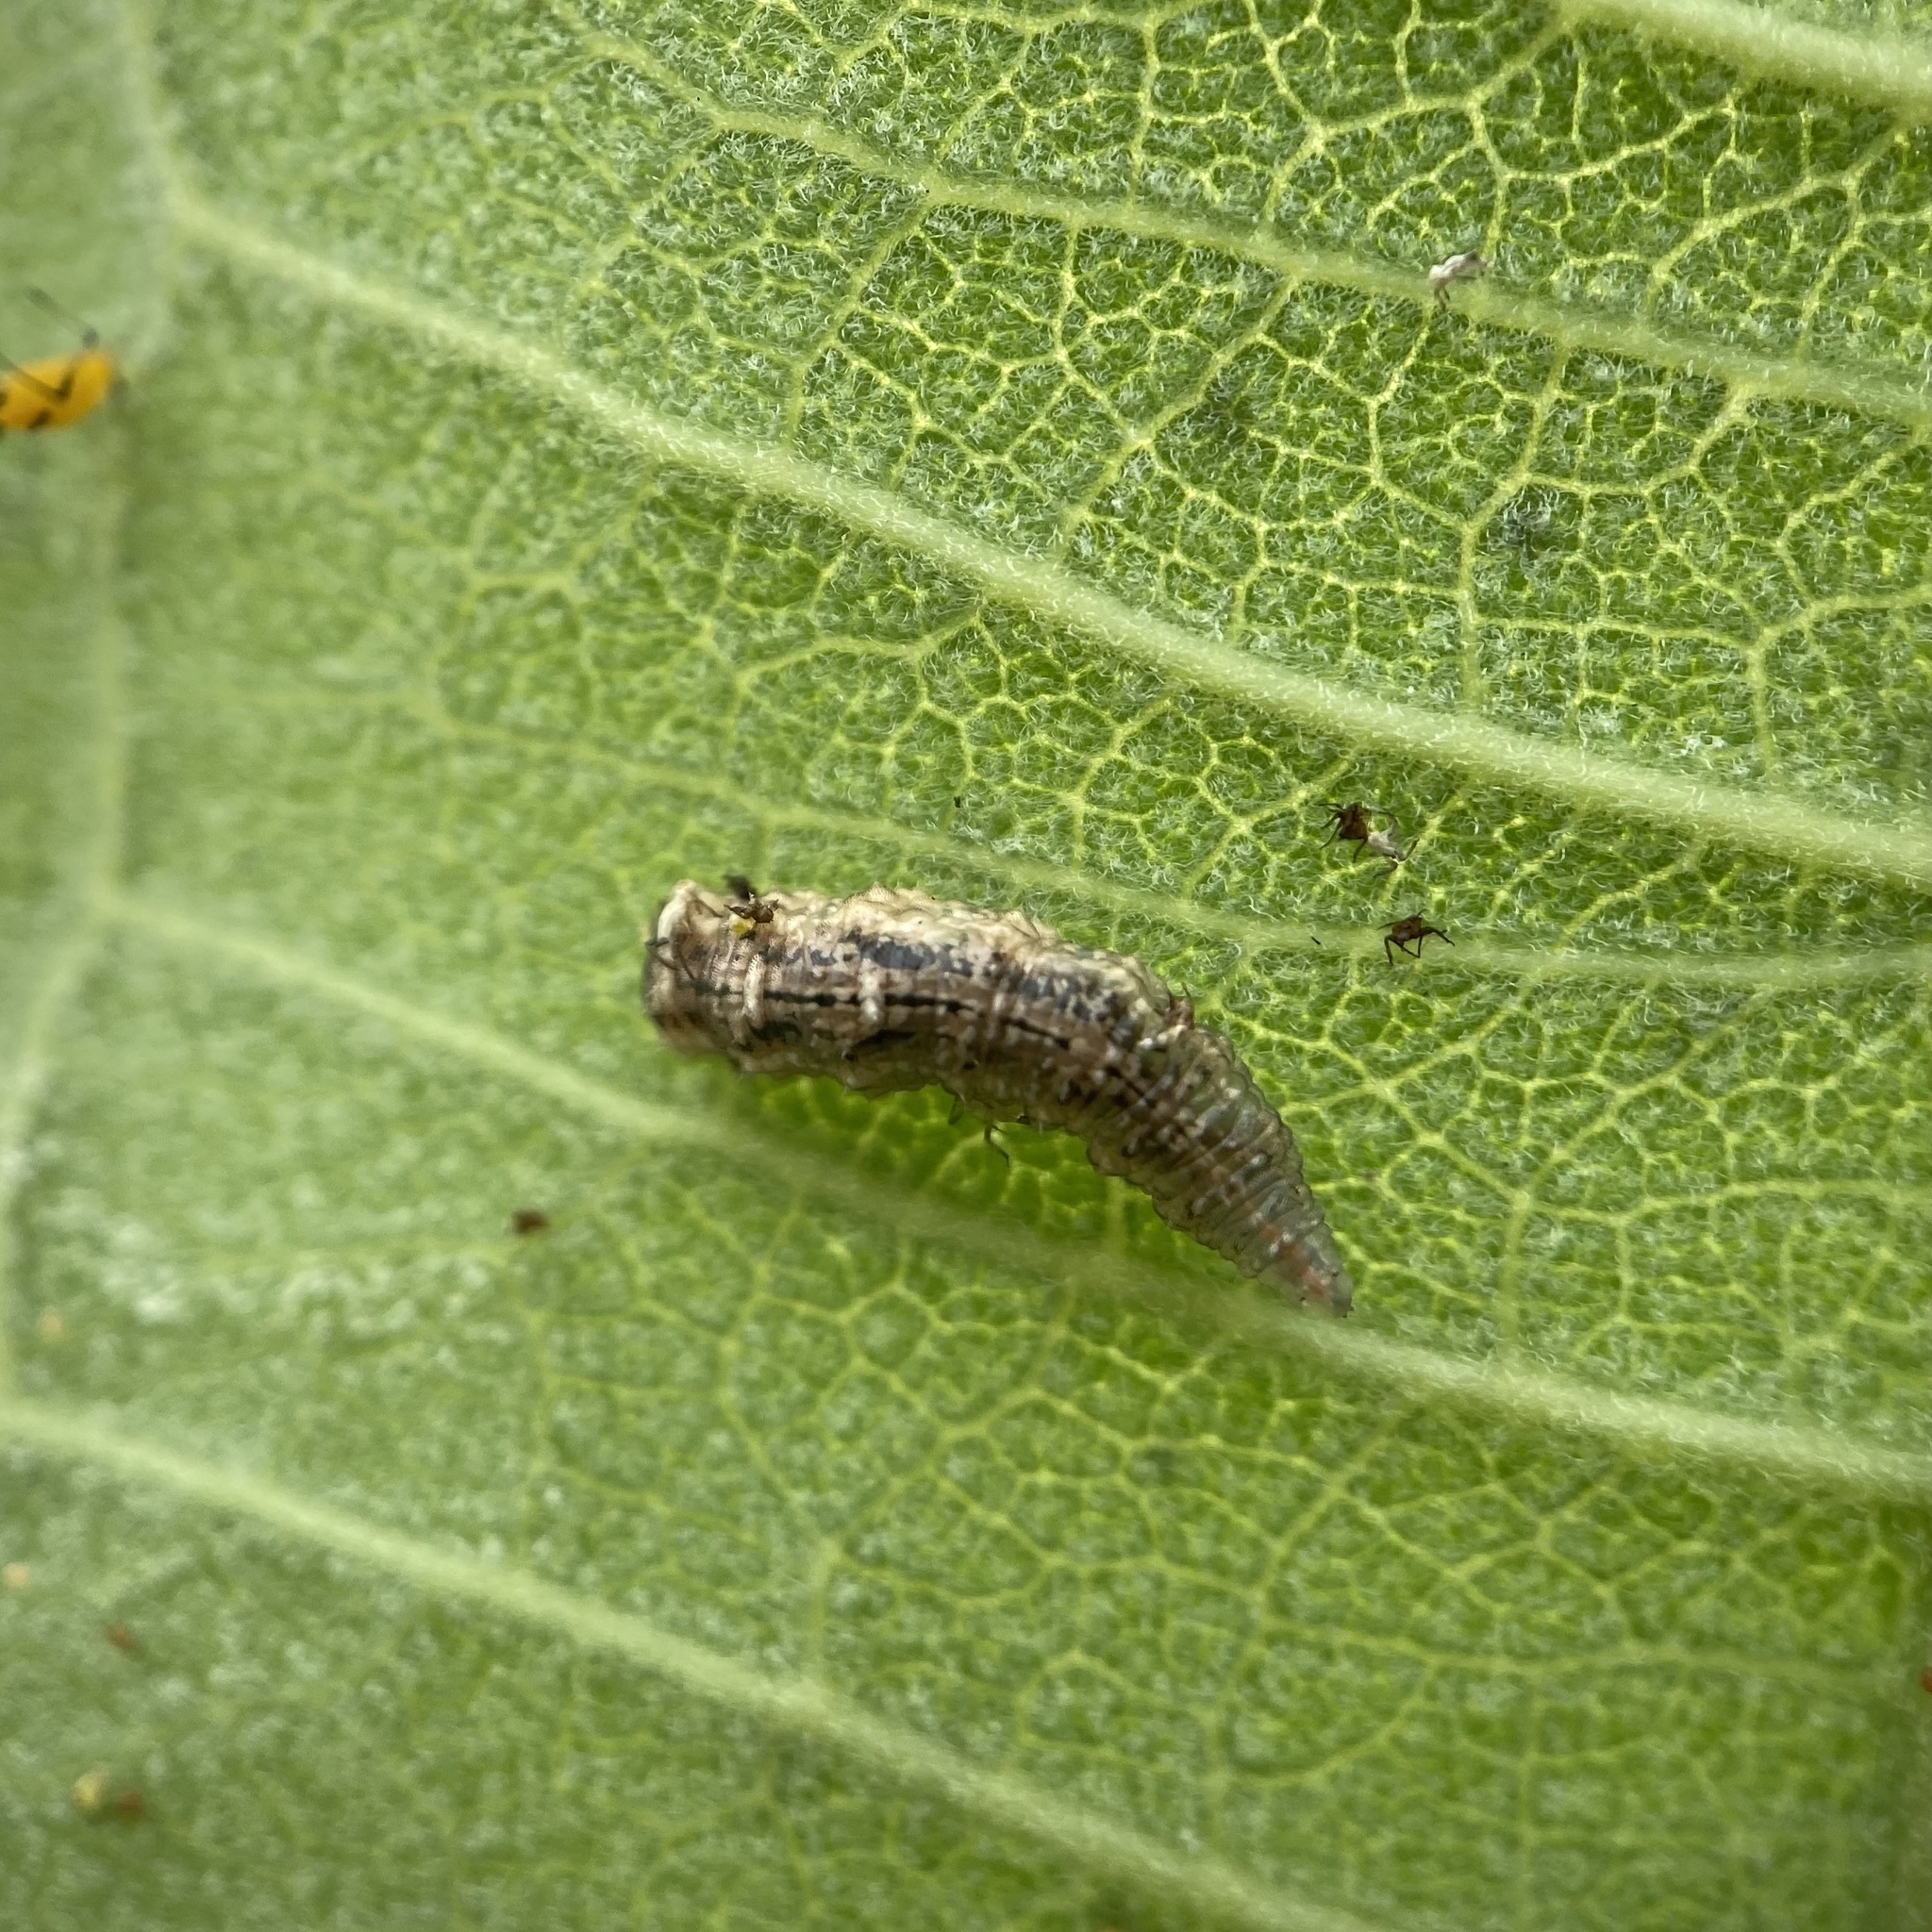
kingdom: Animalia
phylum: Arthropoda
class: Insecta
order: Diptera
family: Syrphidae
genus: Eupeodes
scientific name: Eupeodes americanus
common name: Long-tailed aphideater
